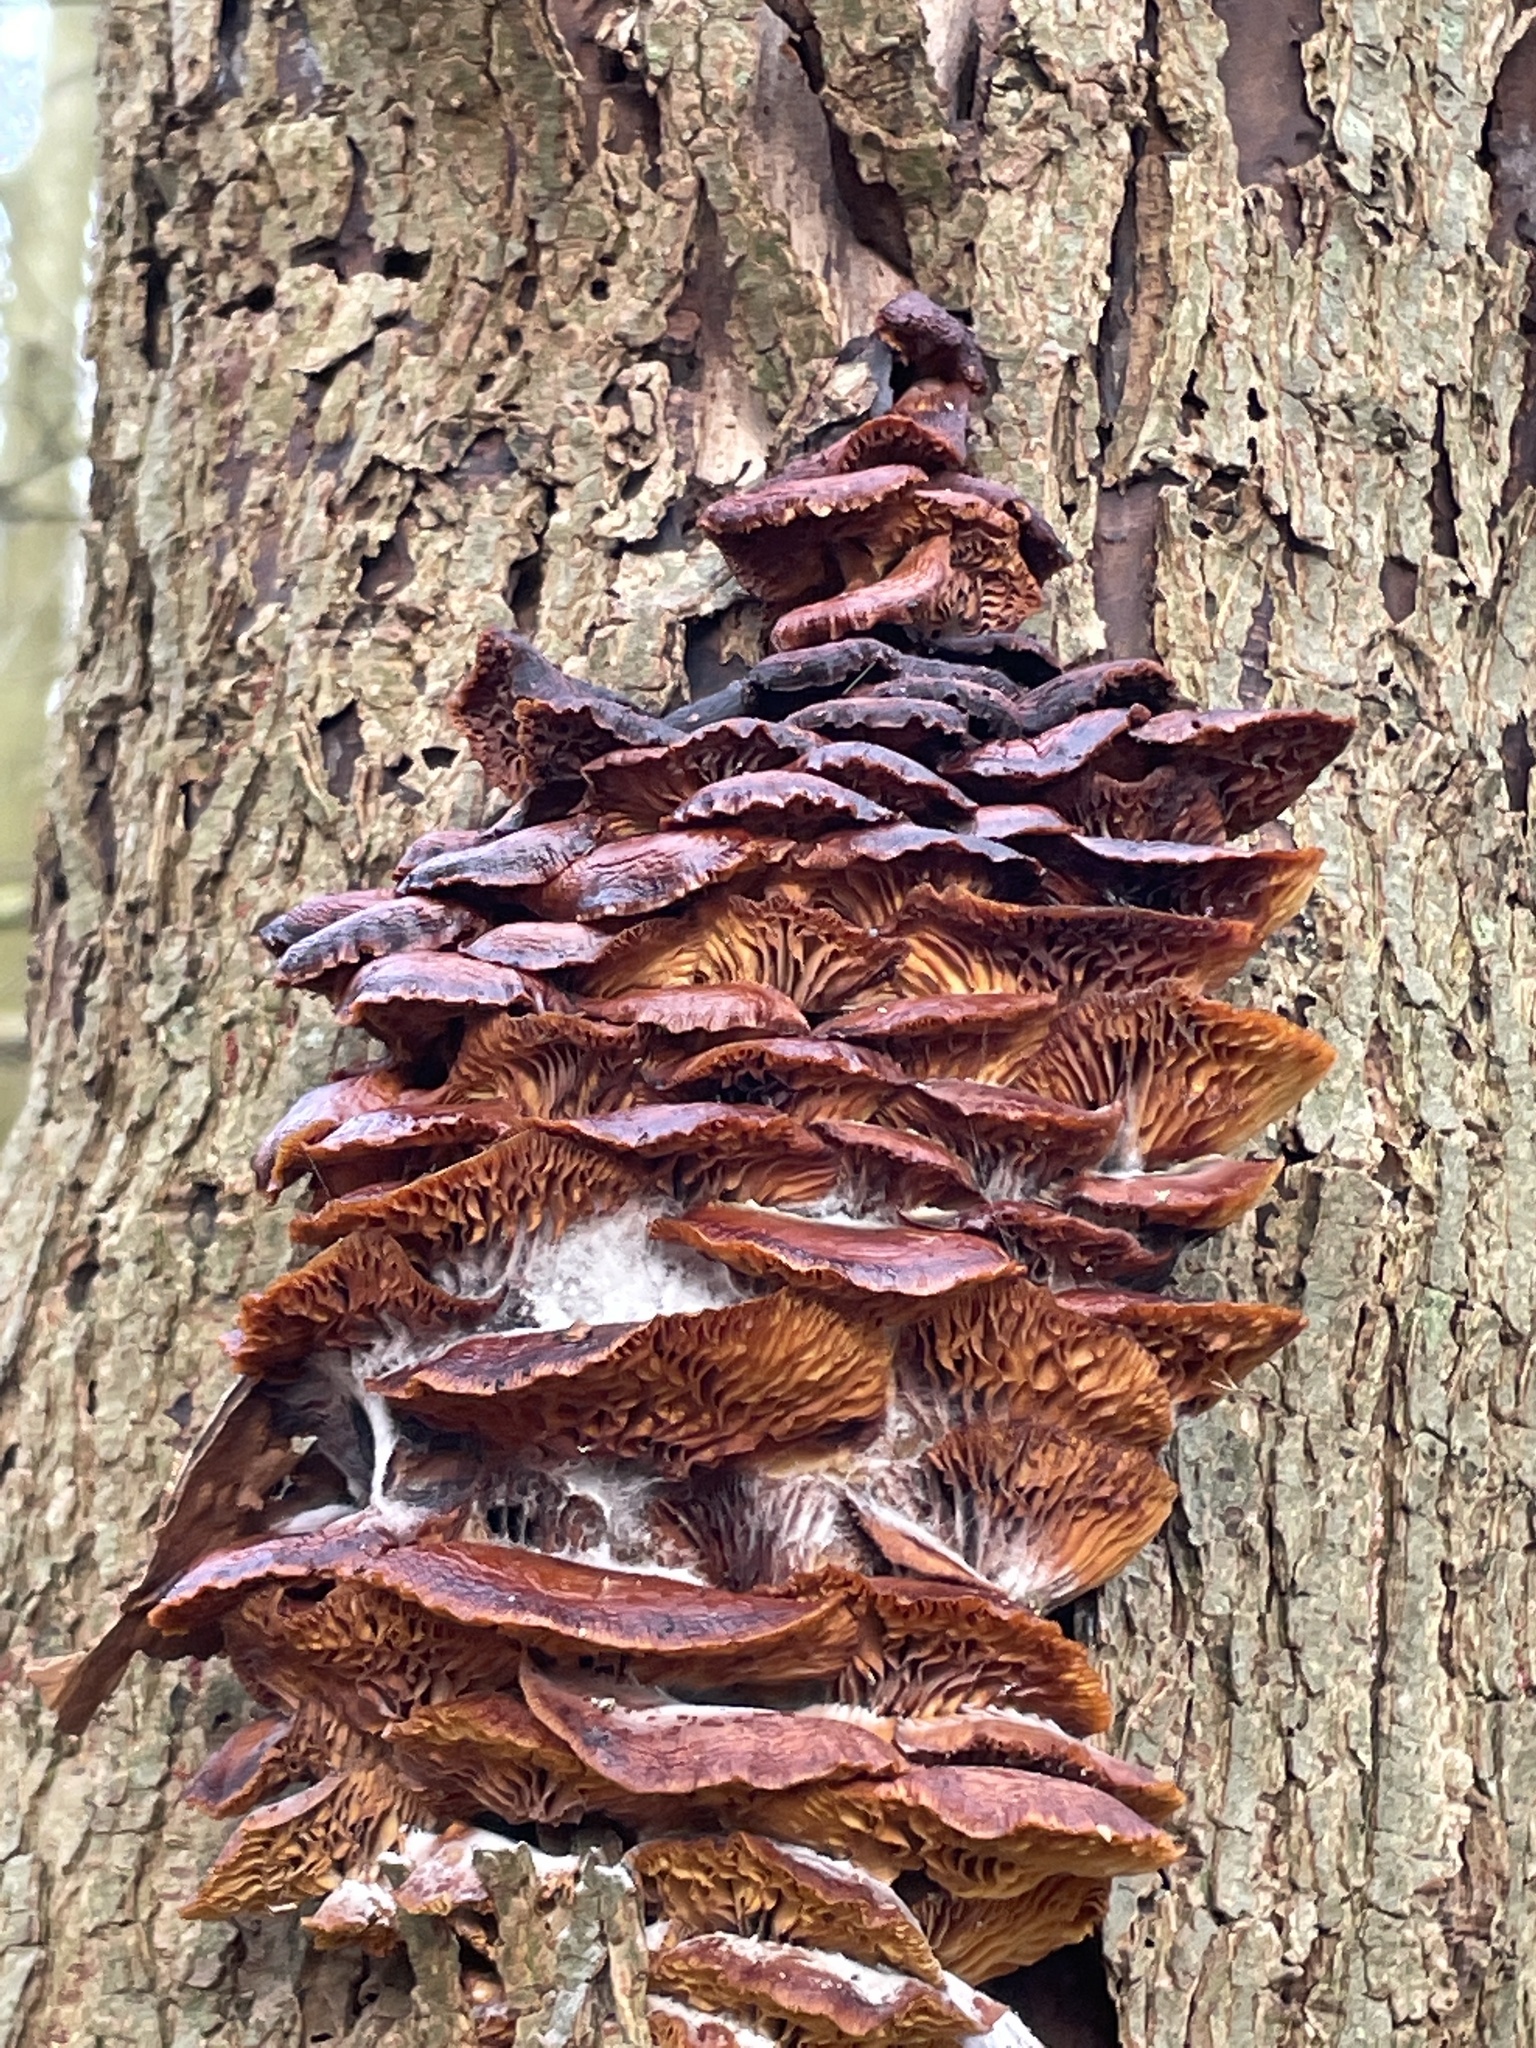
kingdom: Fungi
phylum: Basidiomycota
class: Agaricomycetes
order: Agaricales
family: Physalacriaceae
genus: Flammulina
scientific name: Flammulina
